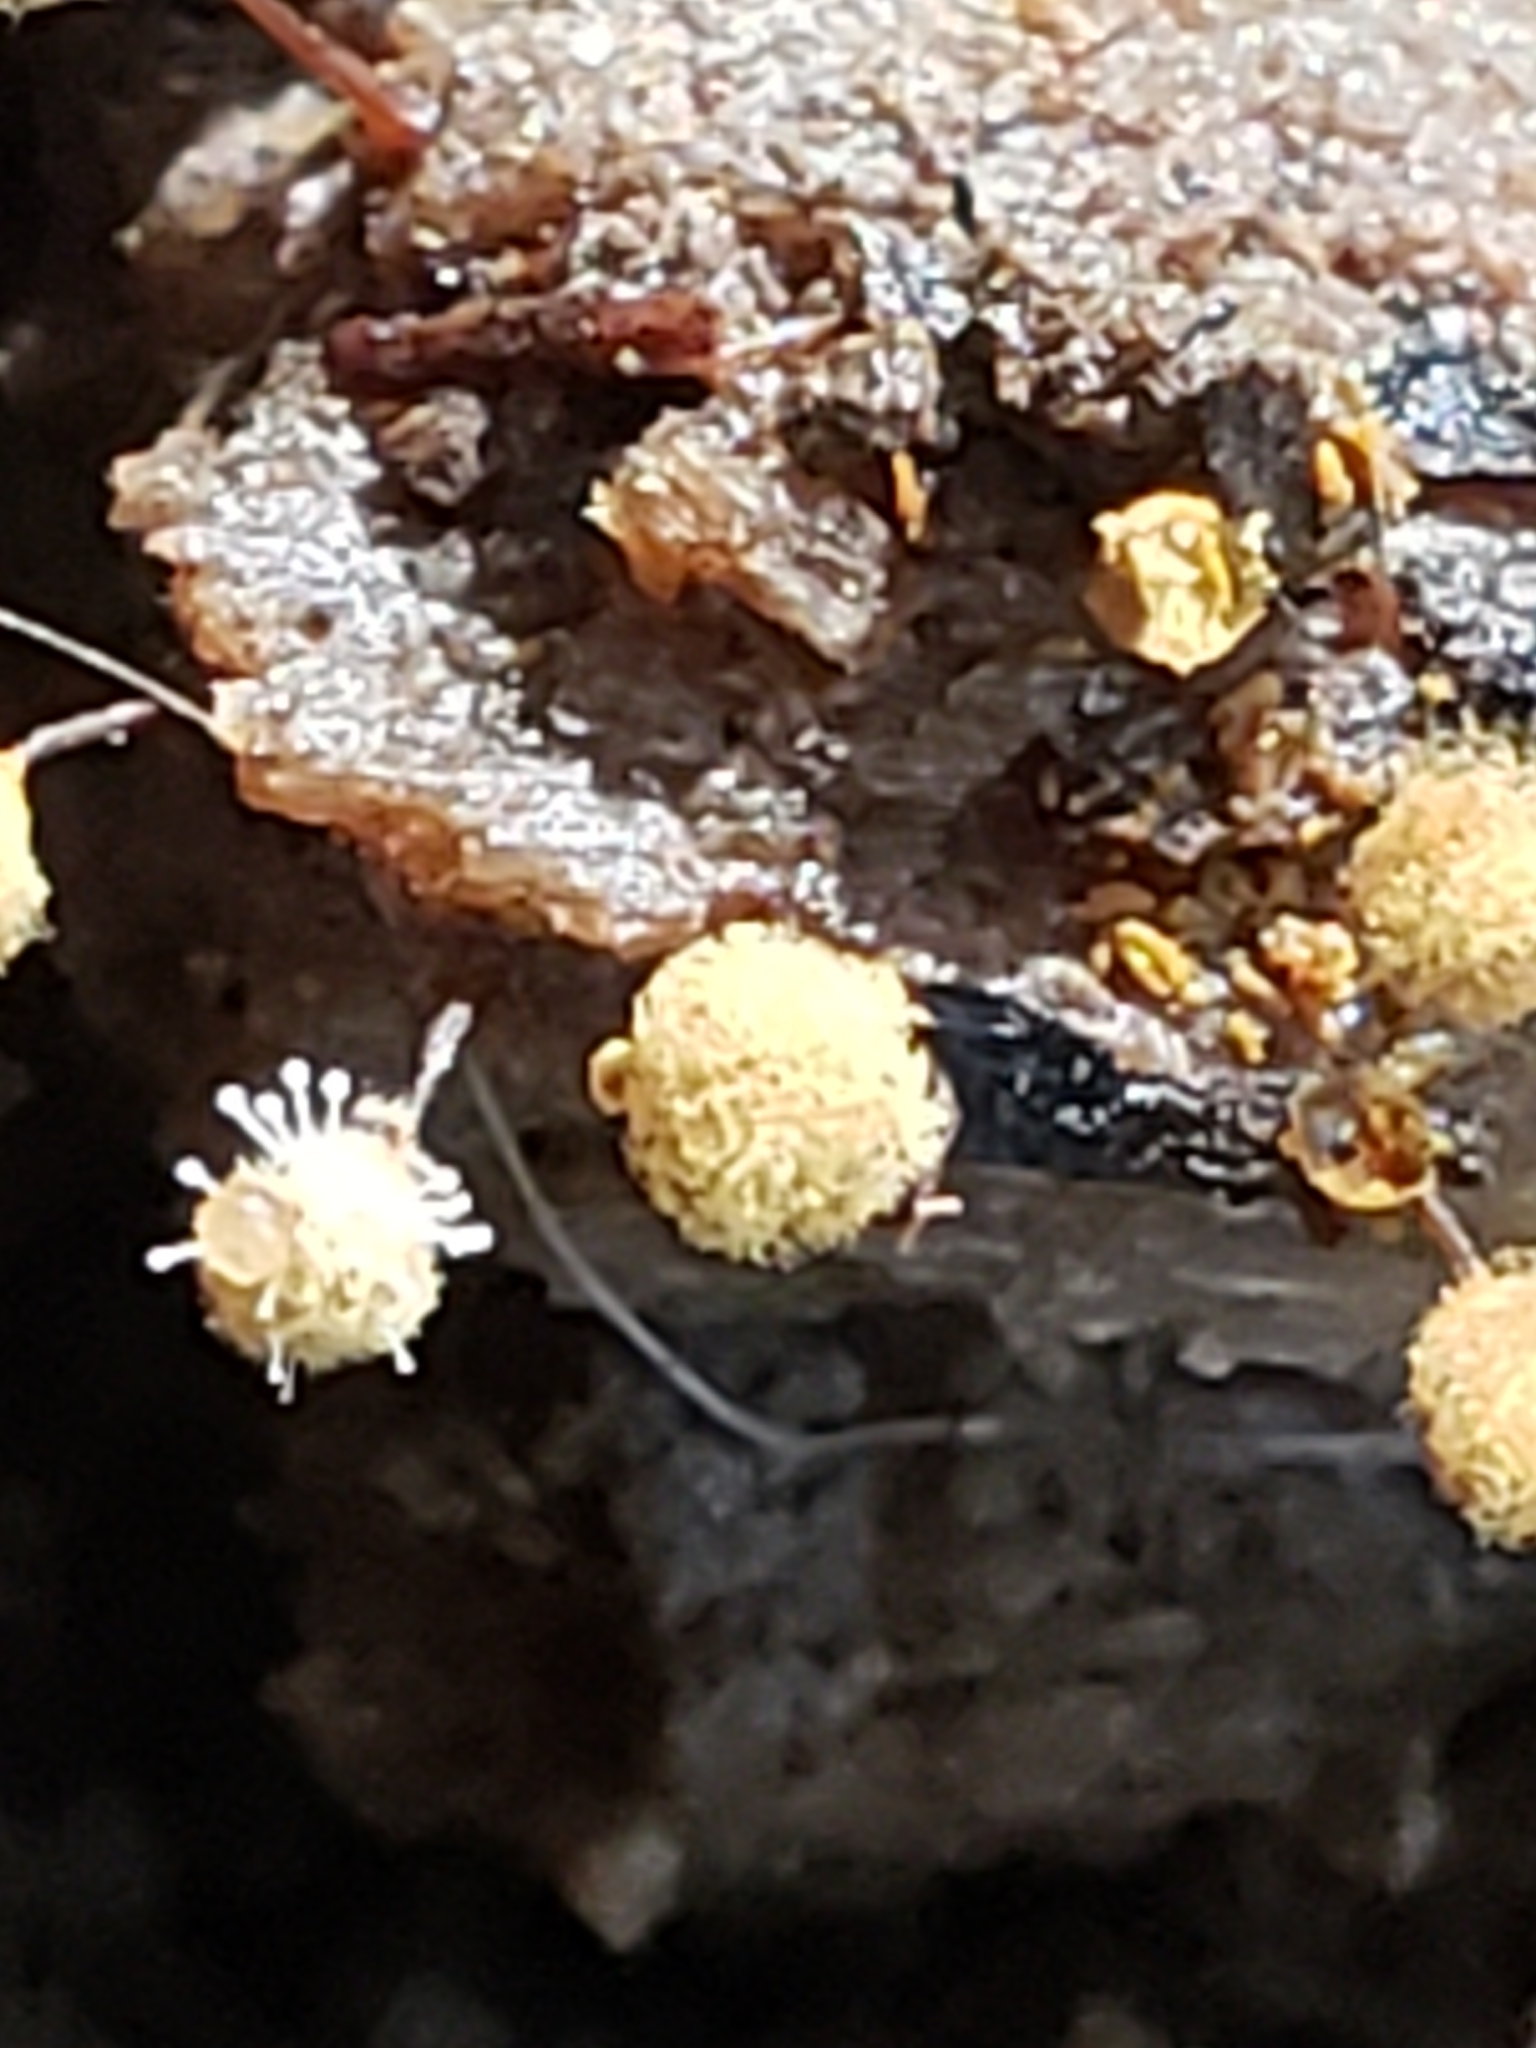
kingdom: Fungi
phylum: Ascomycota
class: Sordariomycetes
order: Hypocreales
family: Ophiocordycipitaceae
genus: Polycephalomyces
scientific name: Polycephalomyces tomentosus
